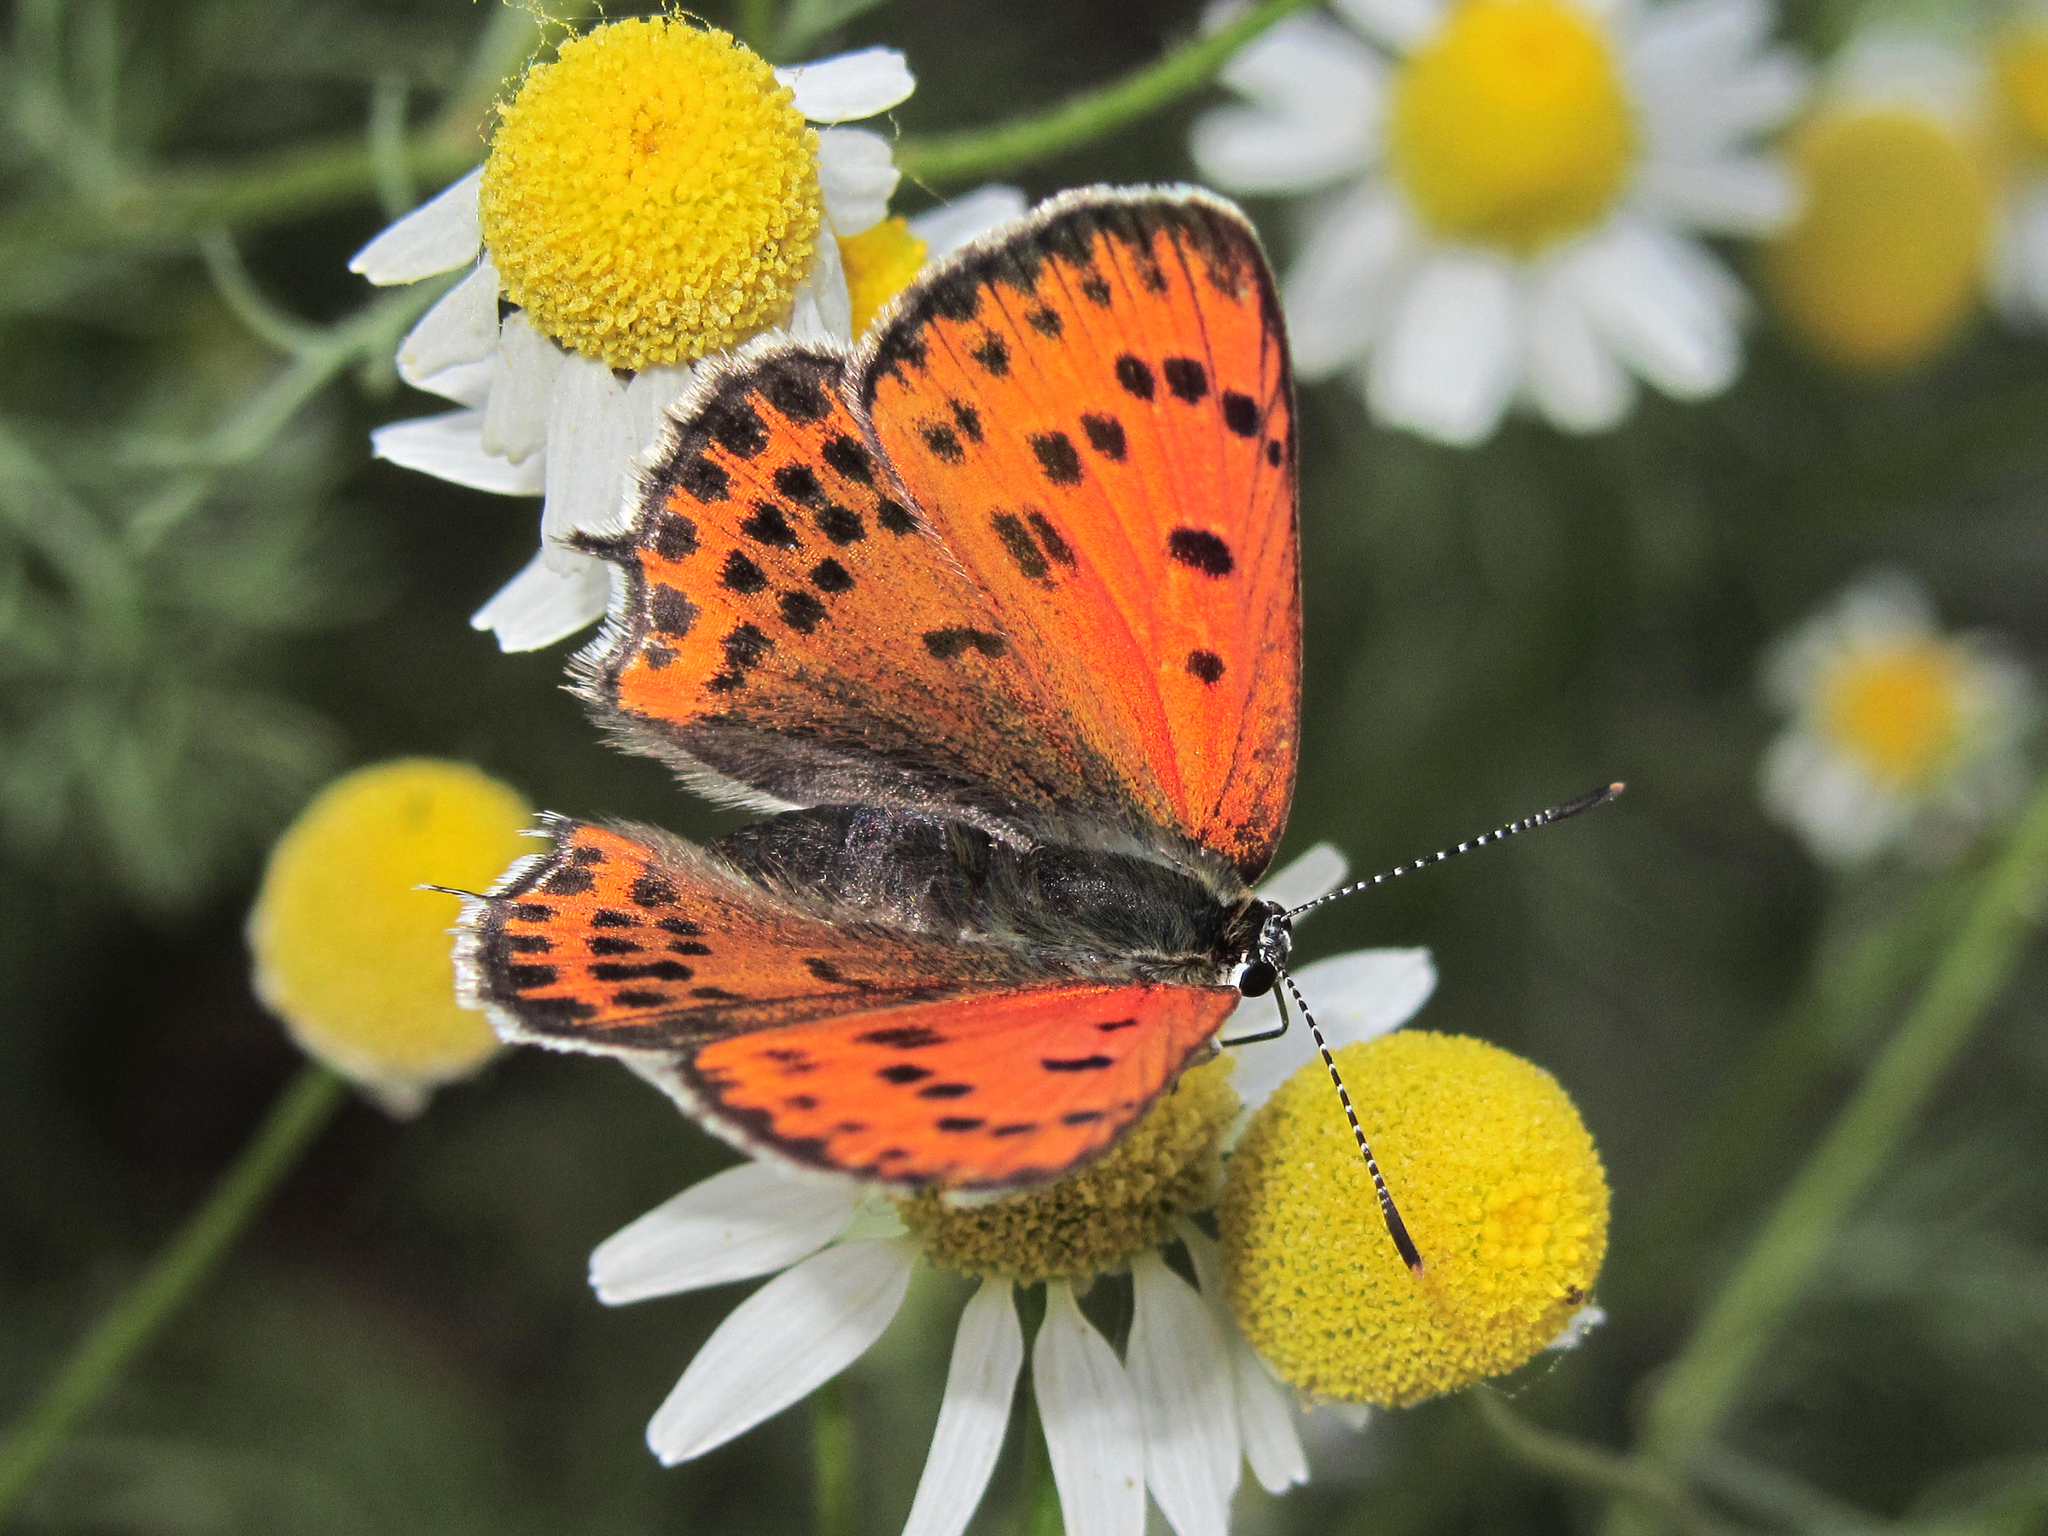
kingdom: Animalia
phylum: Arthropoda
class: Insecta
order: Lepidoptera
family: Lycaenidae
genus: Thersamonia
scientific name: Thersamonia thersamon
